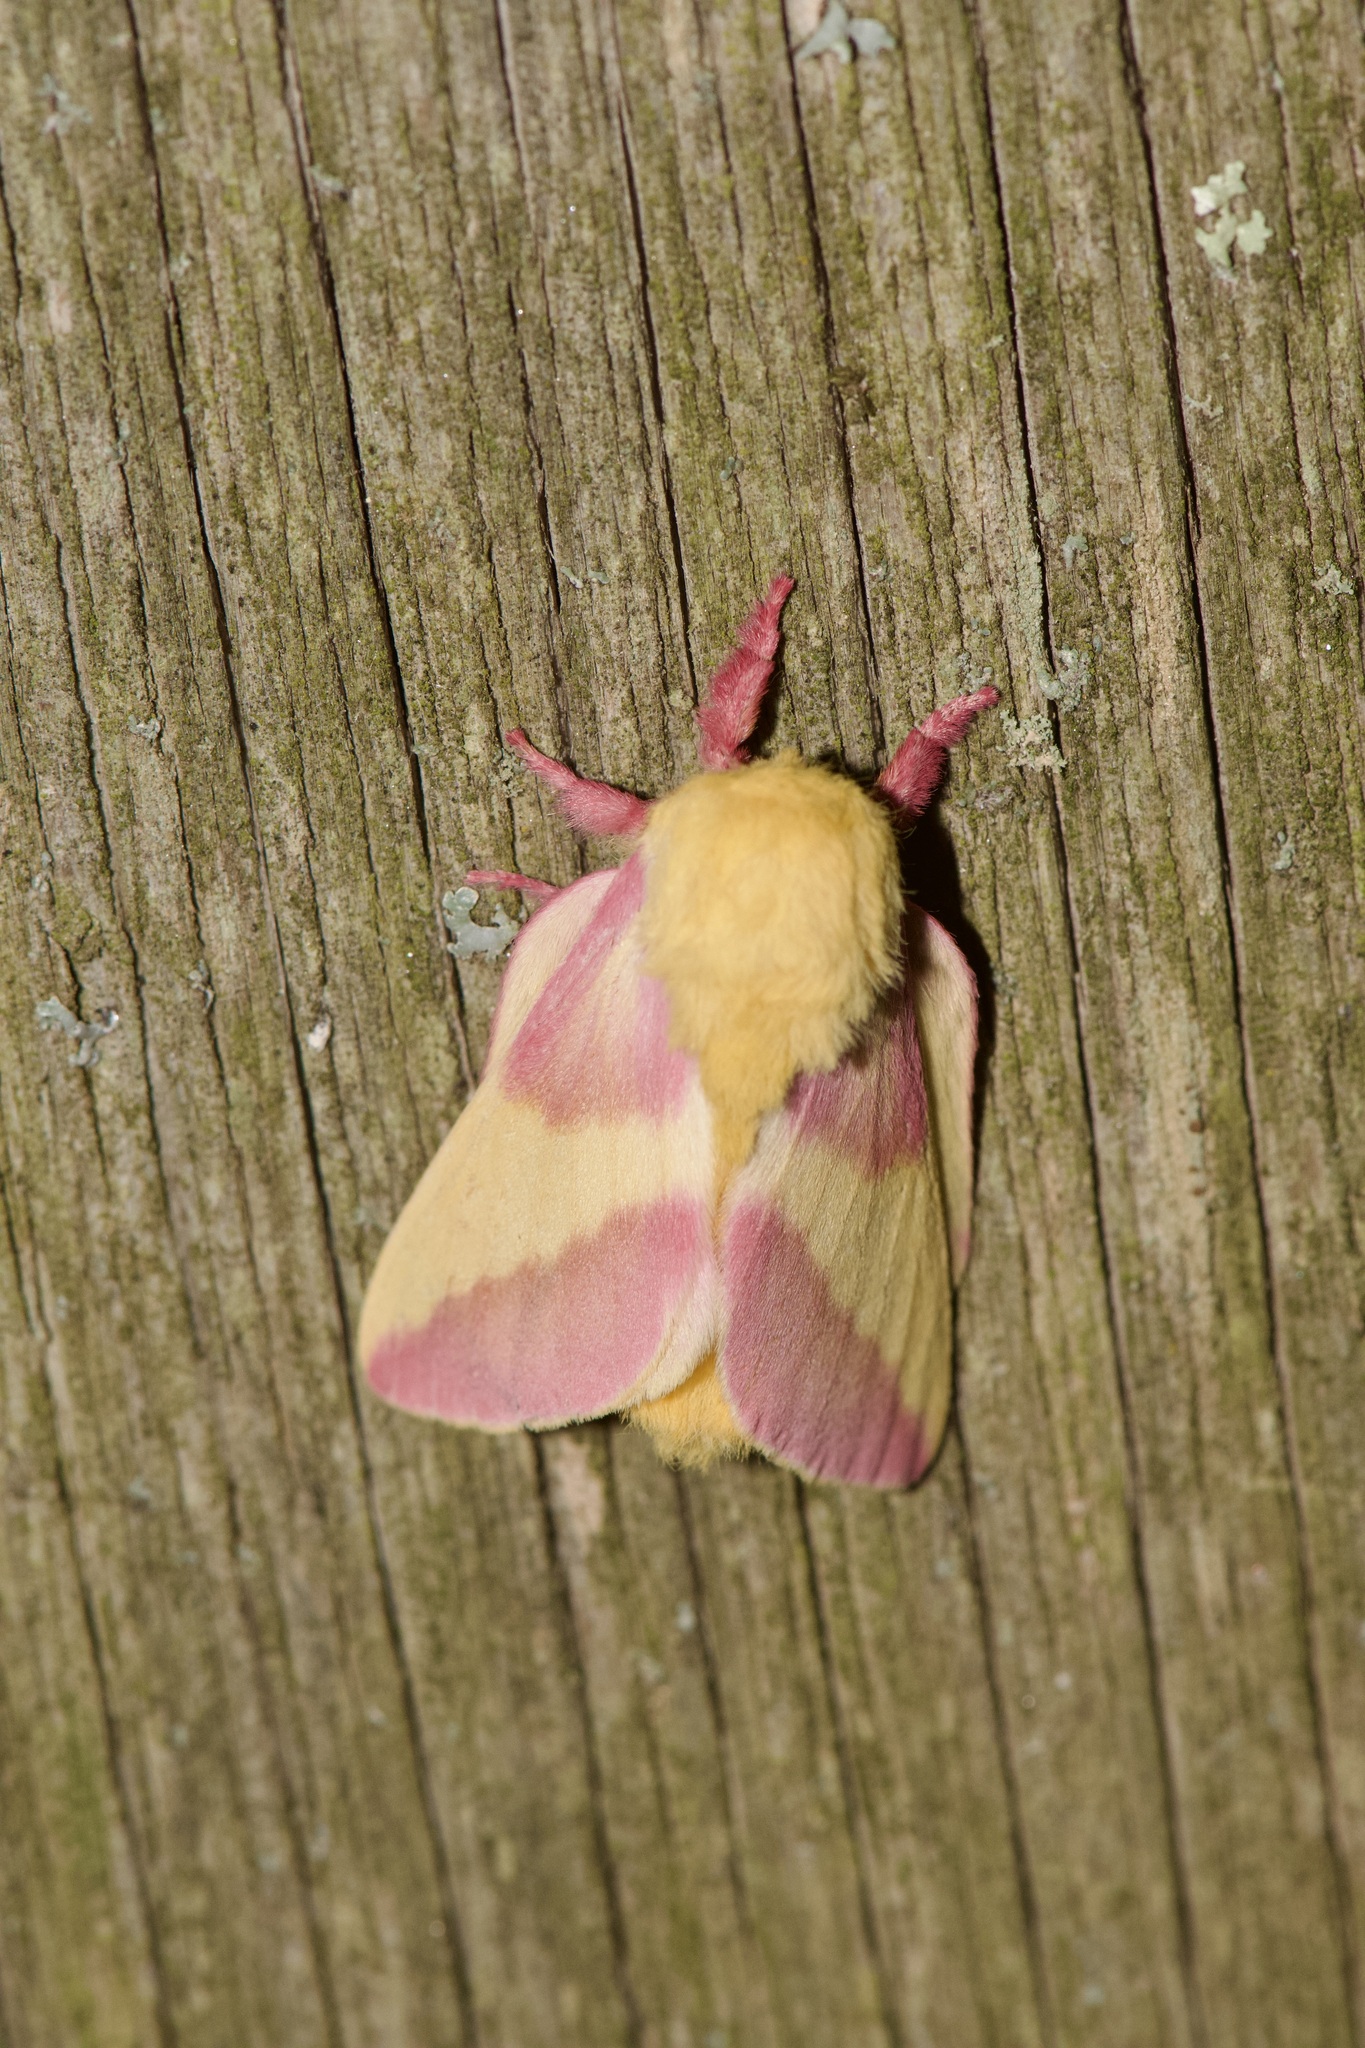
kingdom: Animalia
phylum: Arthropoda
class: Insecta
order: Lepidoptera
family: Saturniidae
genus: Dryocampa
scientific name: Dryocampa rubicunda
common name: Rosy maple moth
